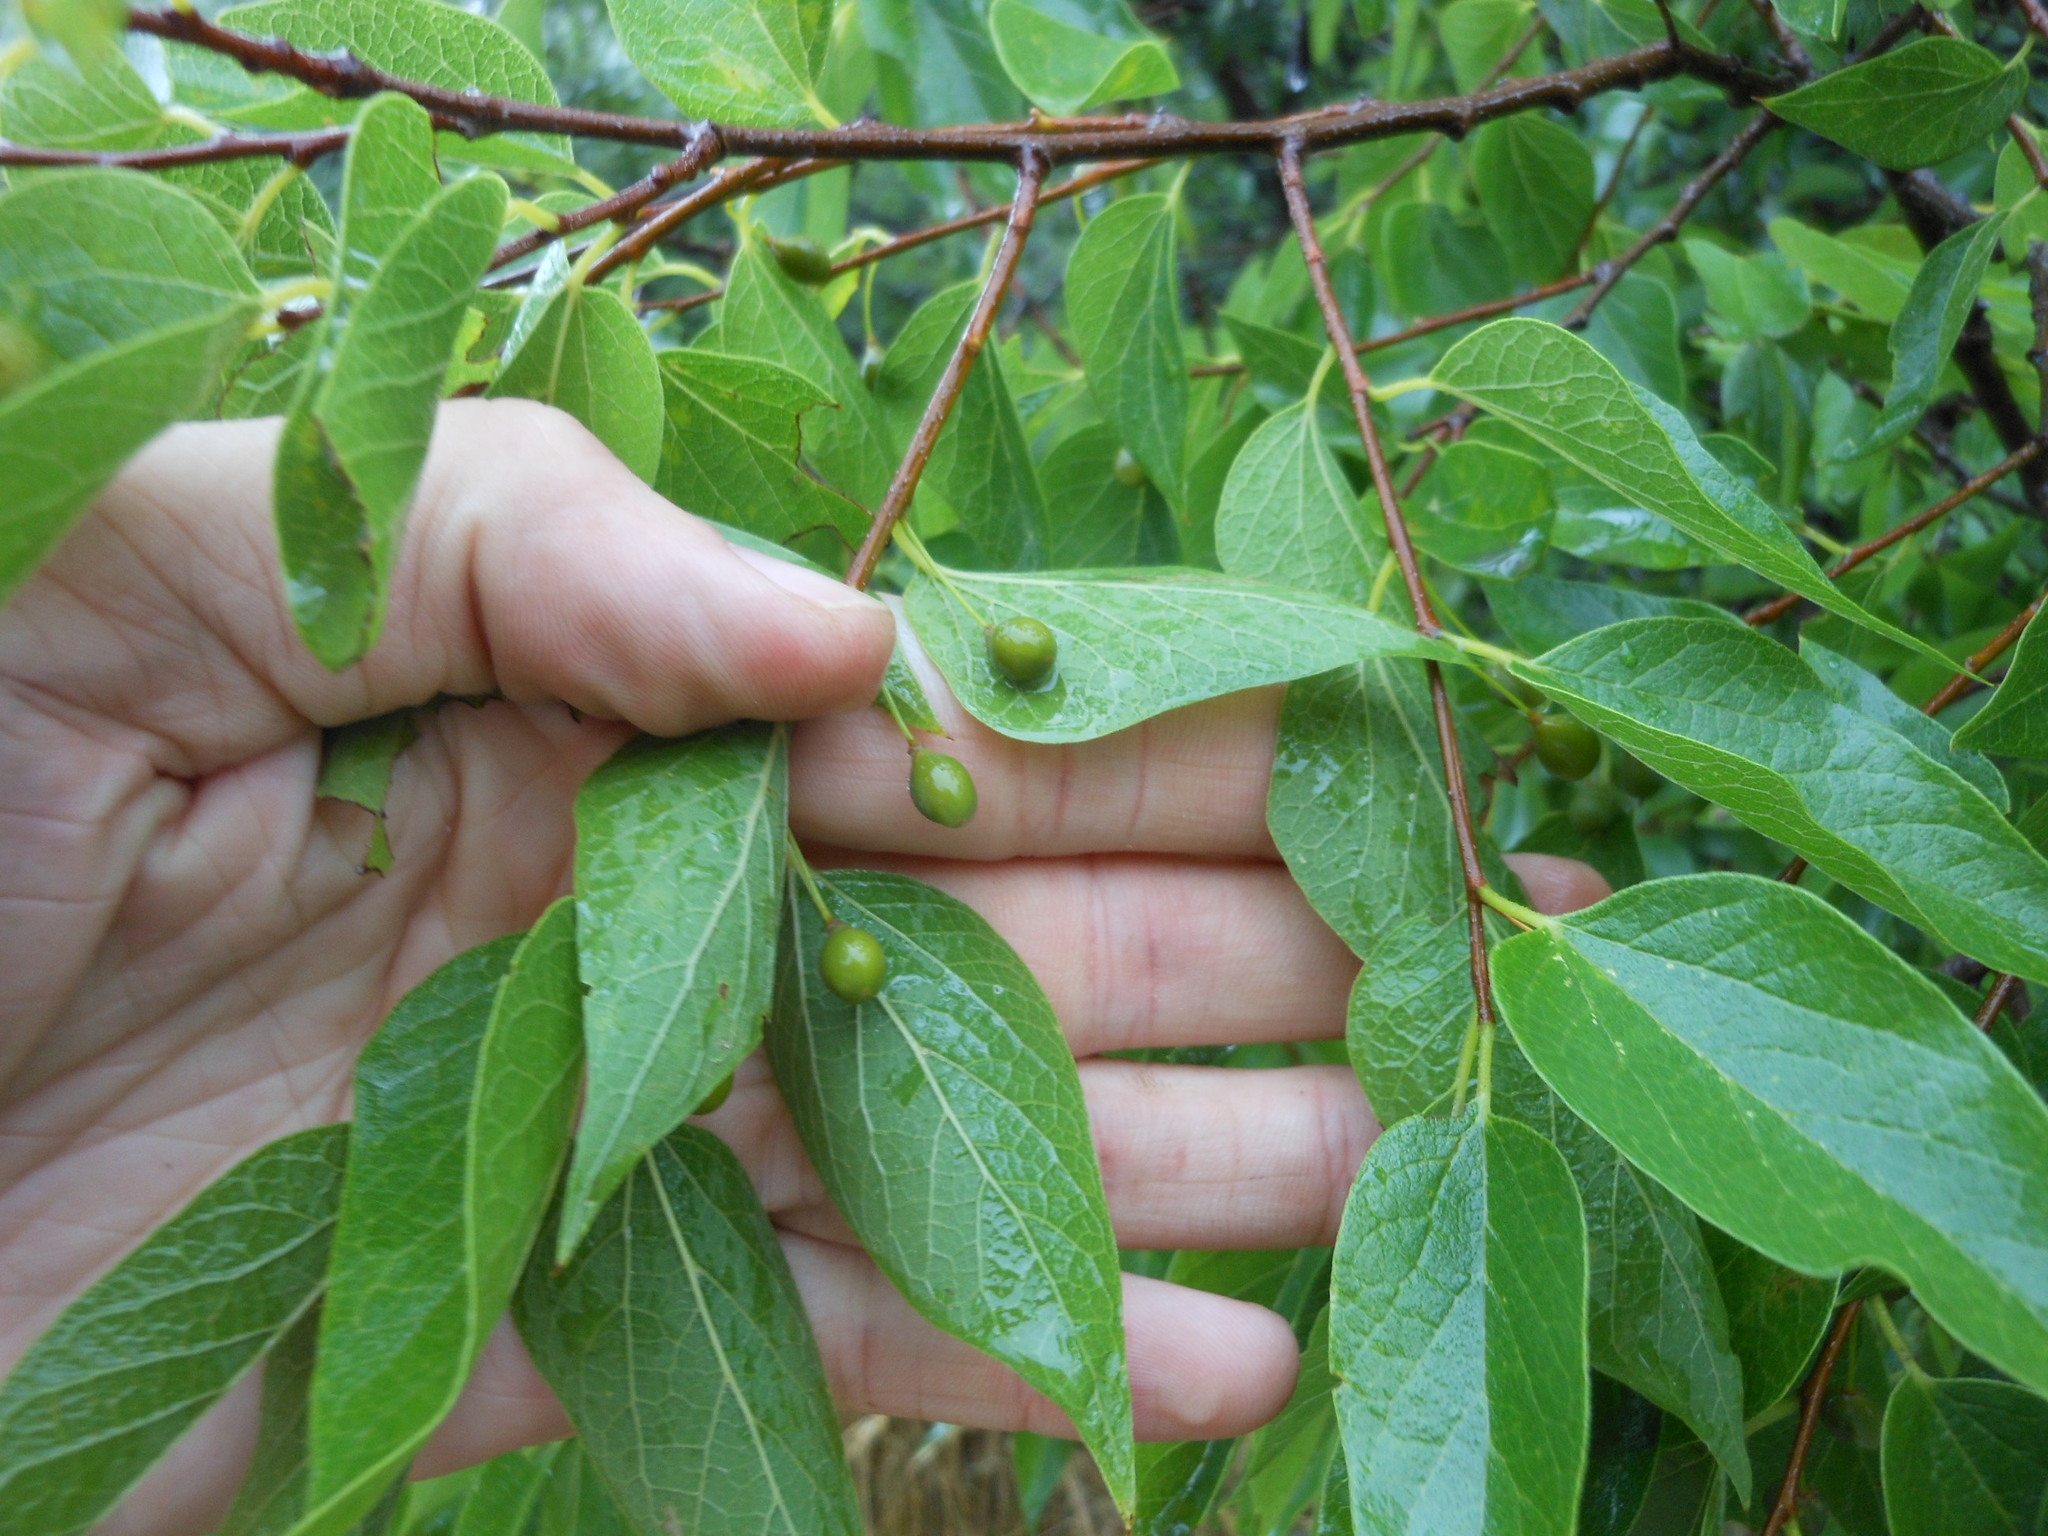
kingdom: Plantae
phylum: Tracheophyta
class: Magnoliopsida
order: Rosales
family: Cannabaceae
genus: Celtis
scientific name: Celtis laevigata
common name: Sugarberry
